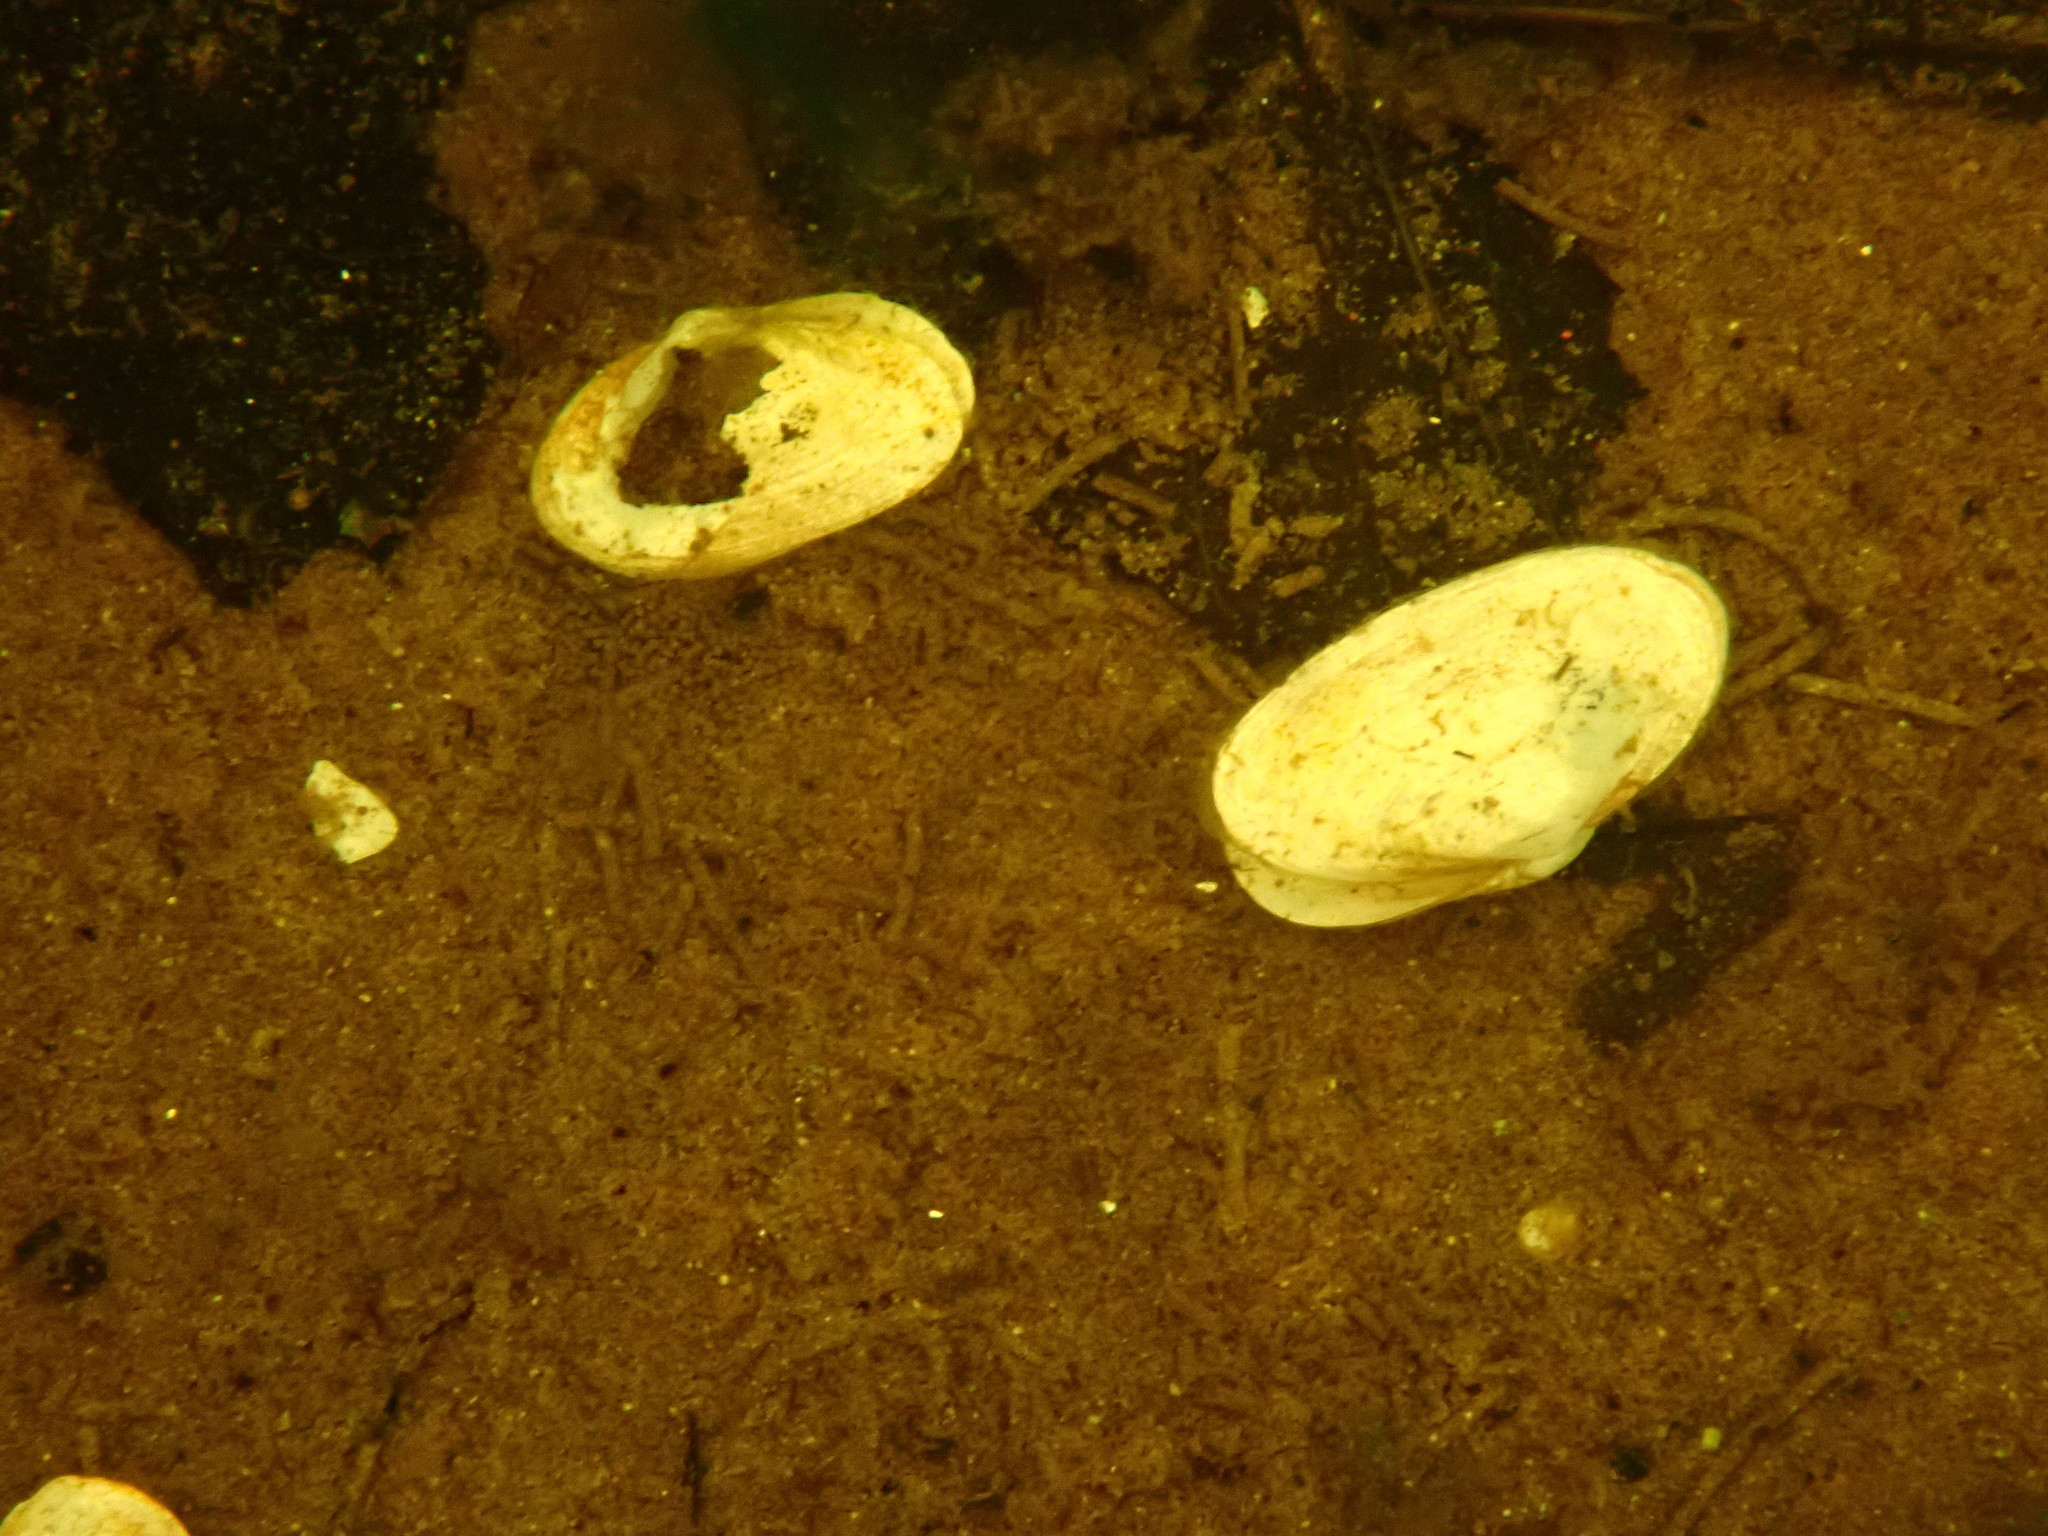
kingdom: Animalia
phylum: Mollusca
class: Bivalvia
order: Myida
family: Myidae
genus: Mya
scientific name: Mya arenaria
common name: Soft-shelled clam
